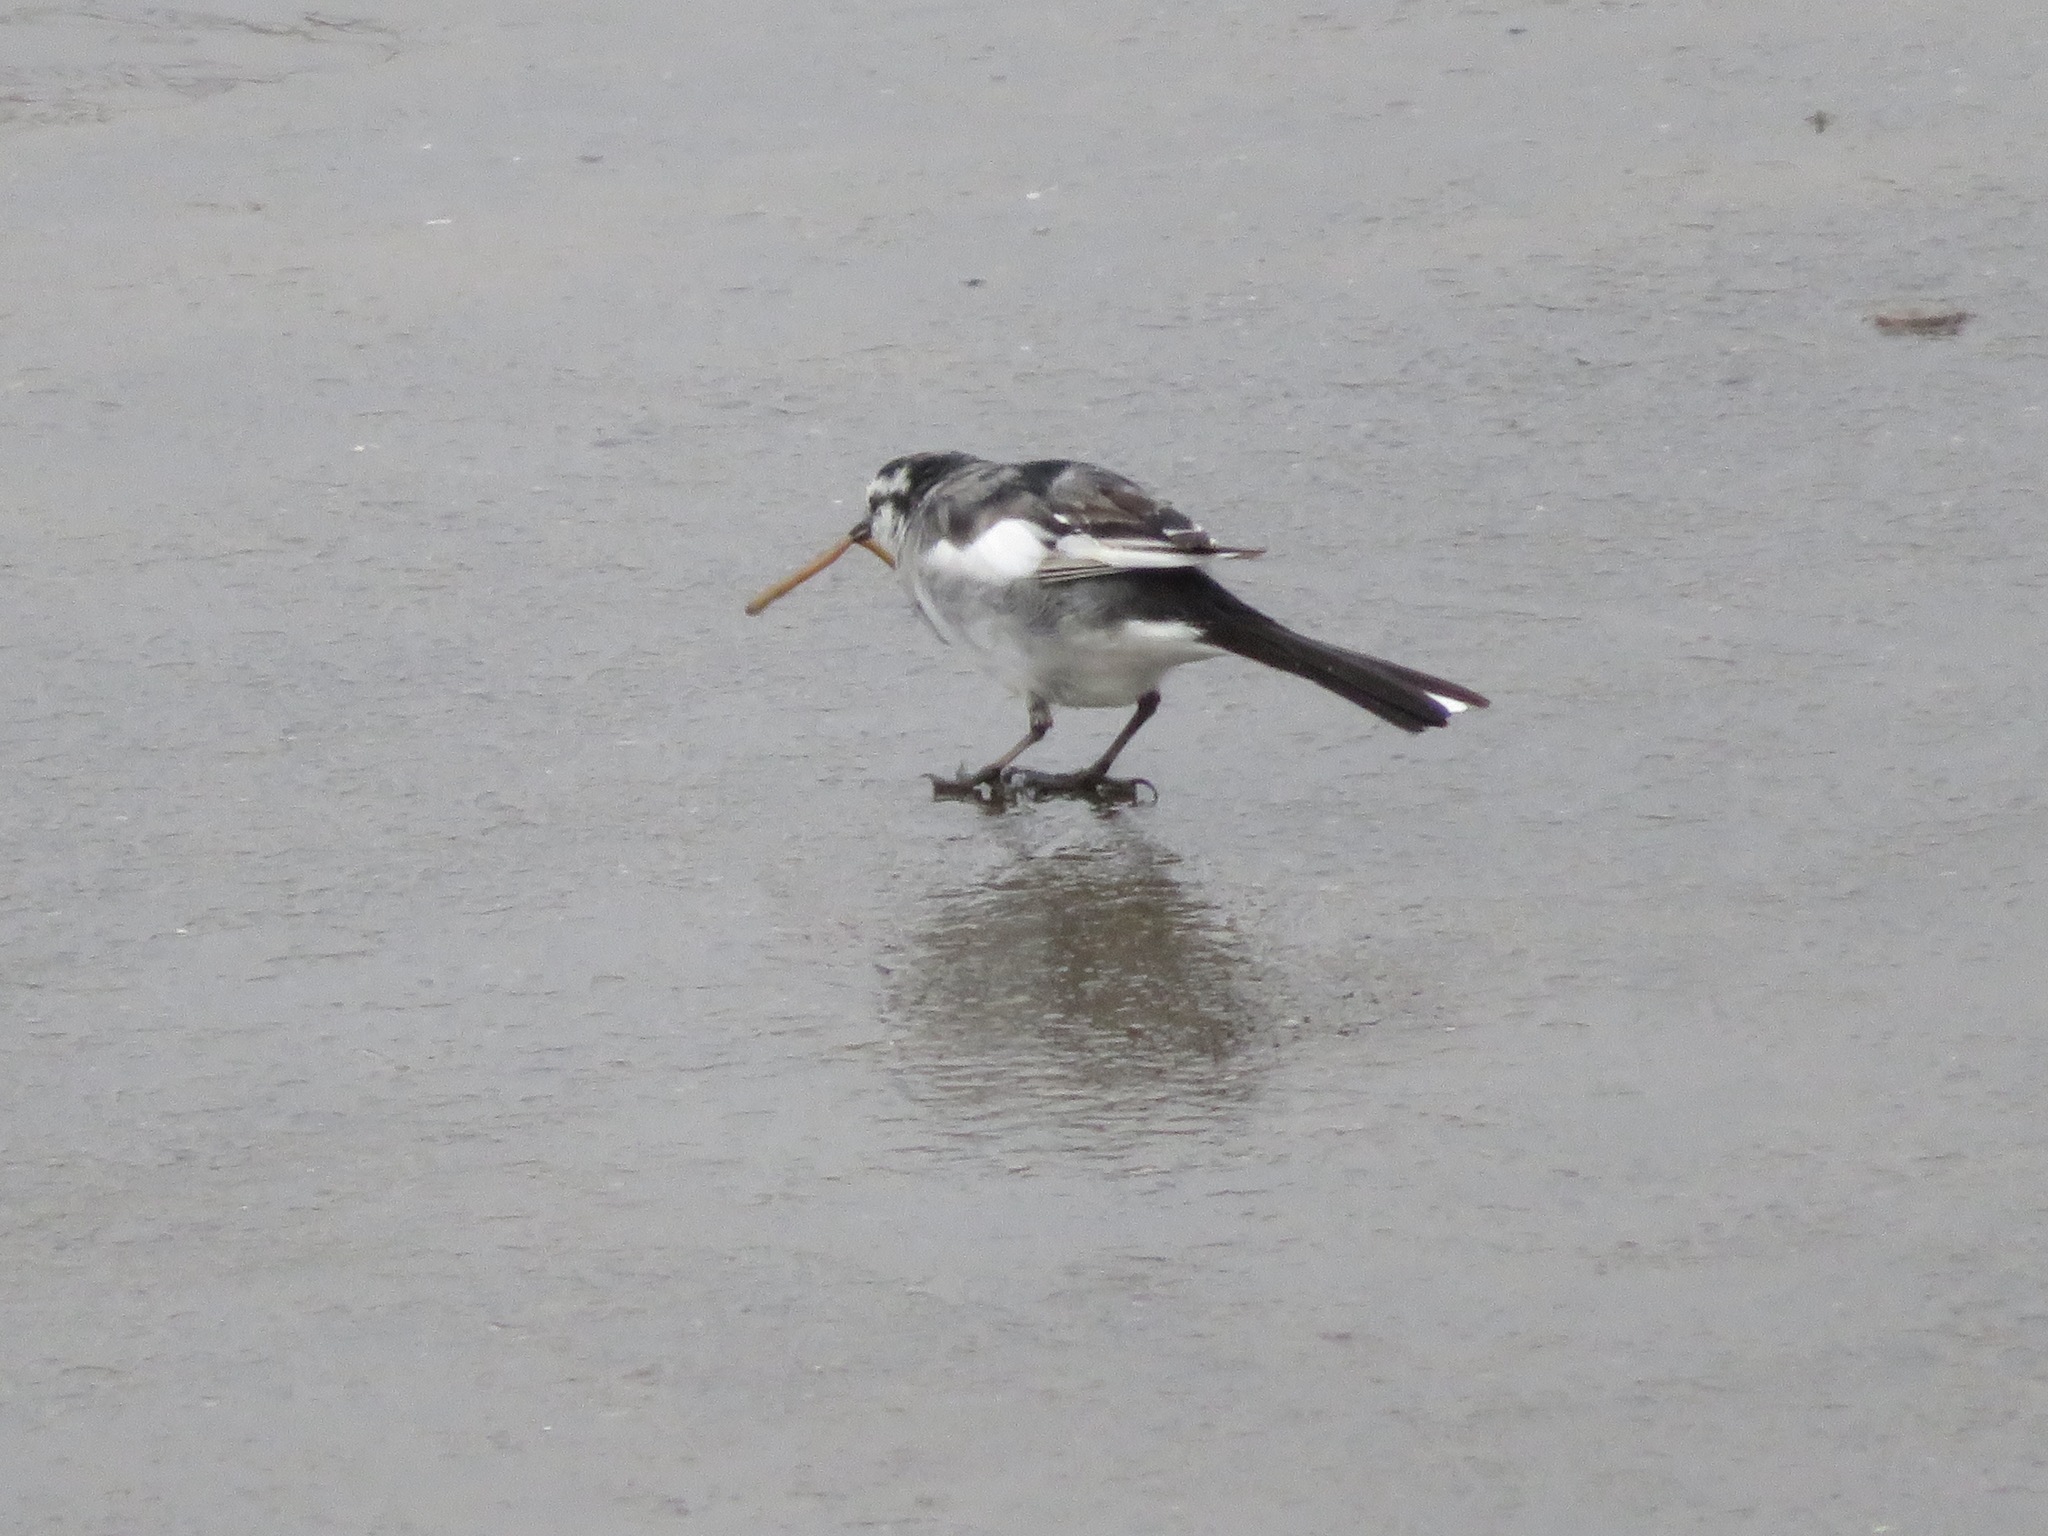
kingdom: Animalia
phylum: Chordata
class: Aves
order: Passeriformes
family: Motacillidae
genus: Motacilla
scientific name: Motacilla alba
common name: White wagtail
